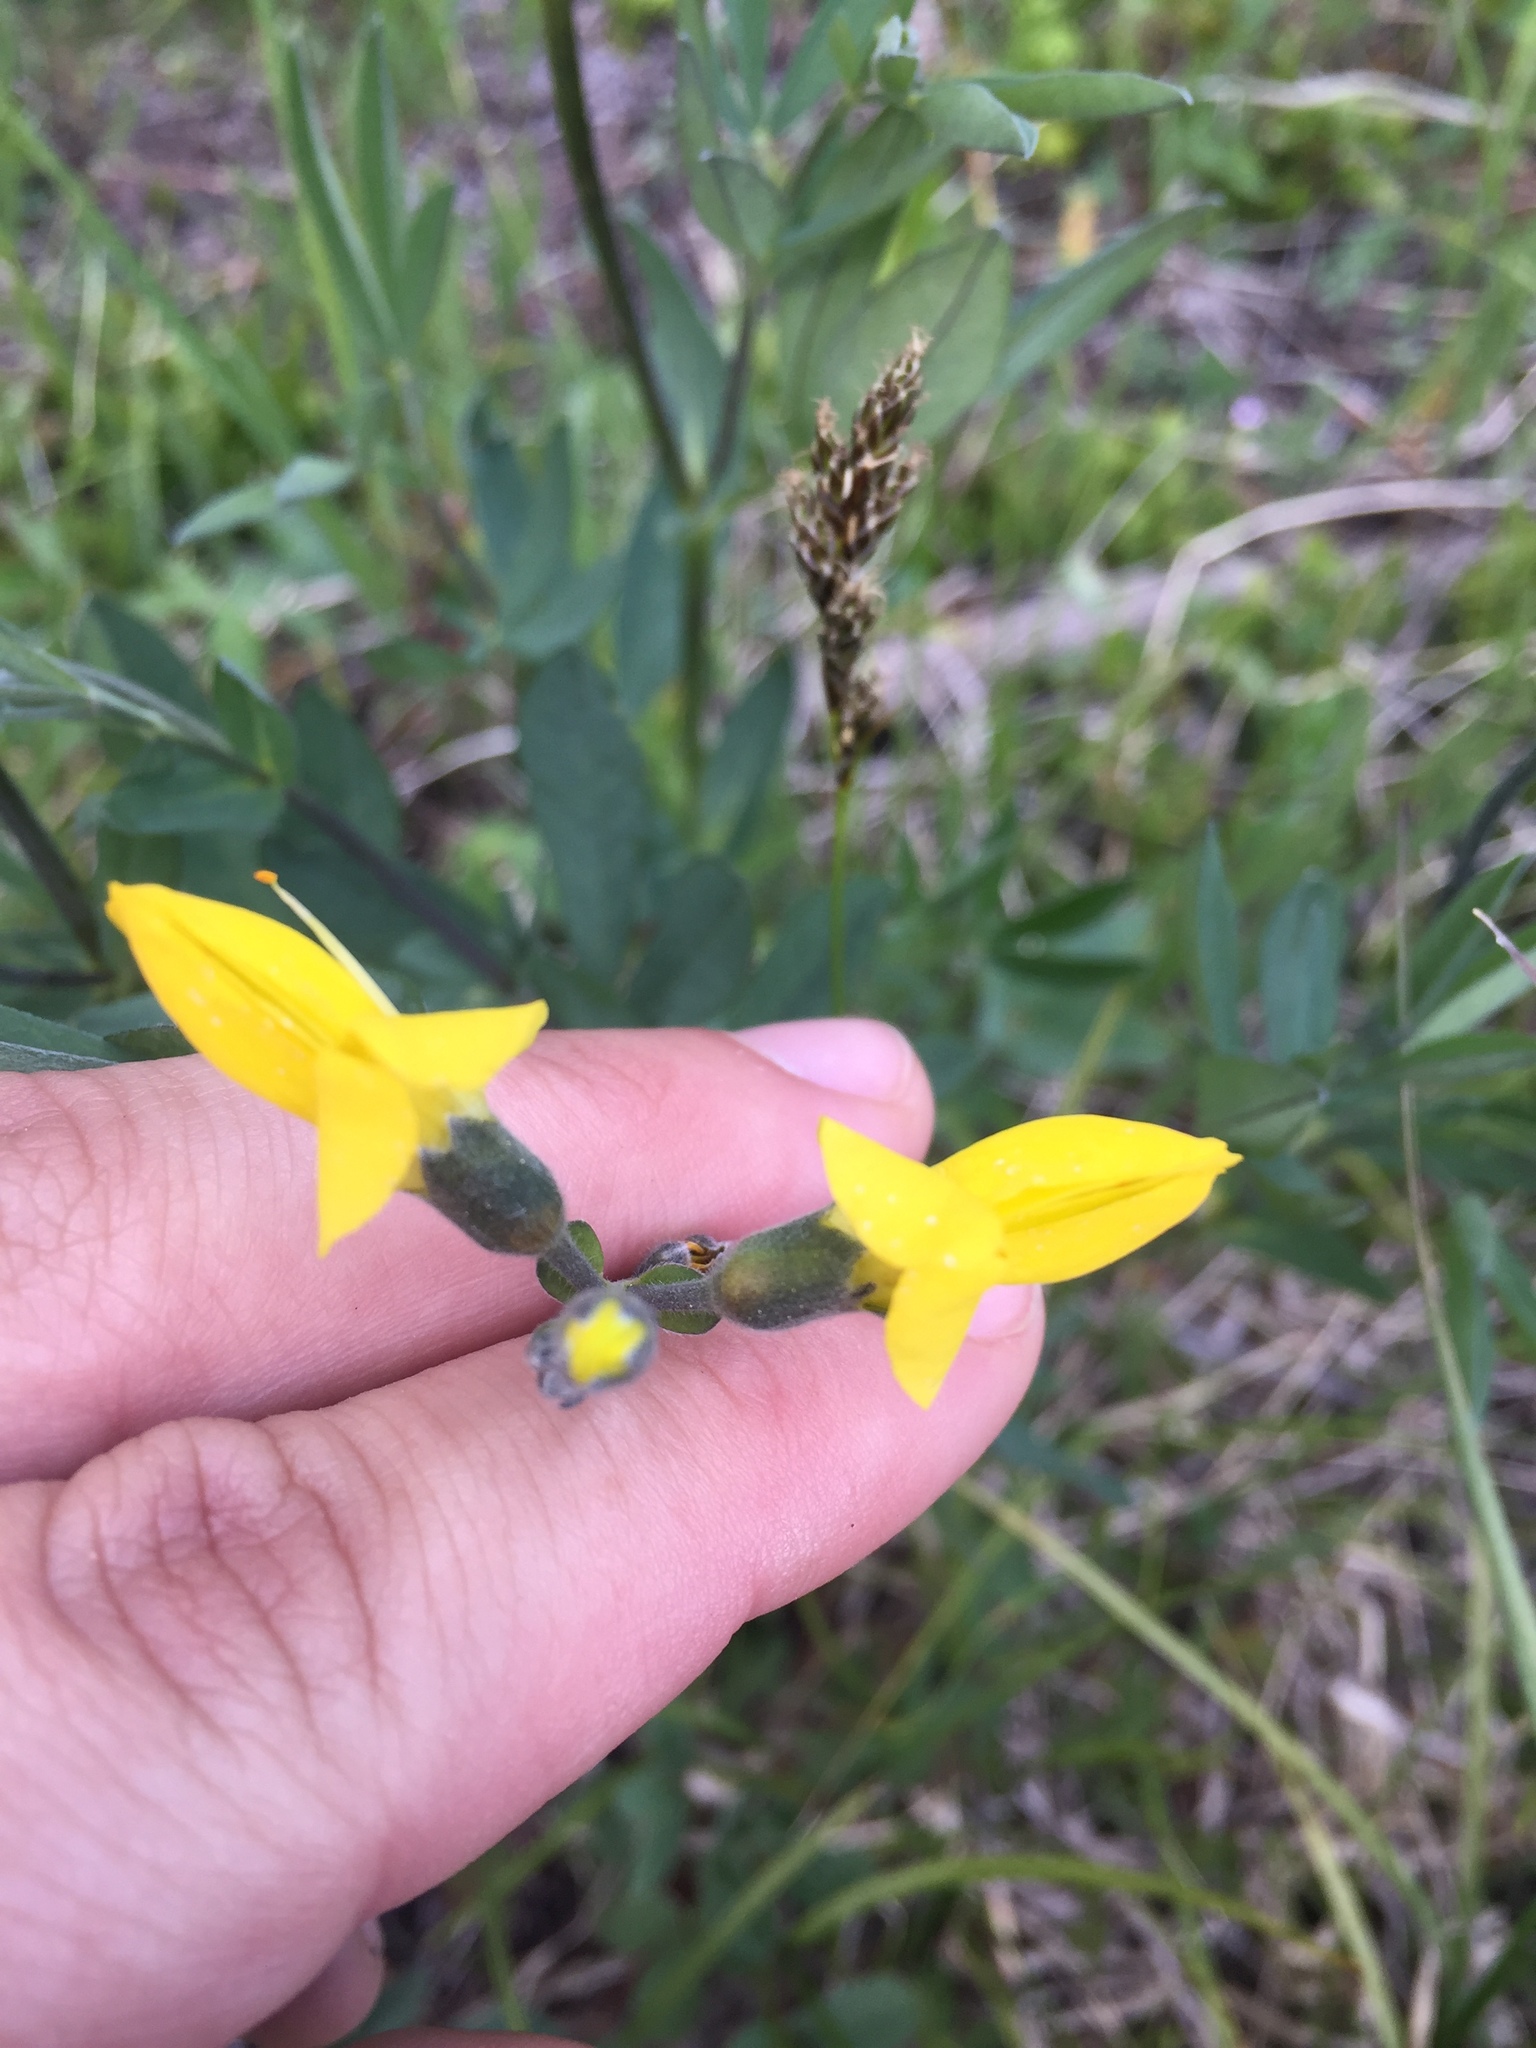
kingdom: Plantae
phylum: Tracheophyta
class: Magnoliopsida
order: Fabales
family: Fabaceae
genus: Thermopsis
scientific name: Thermopsis montana
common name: False lupin
